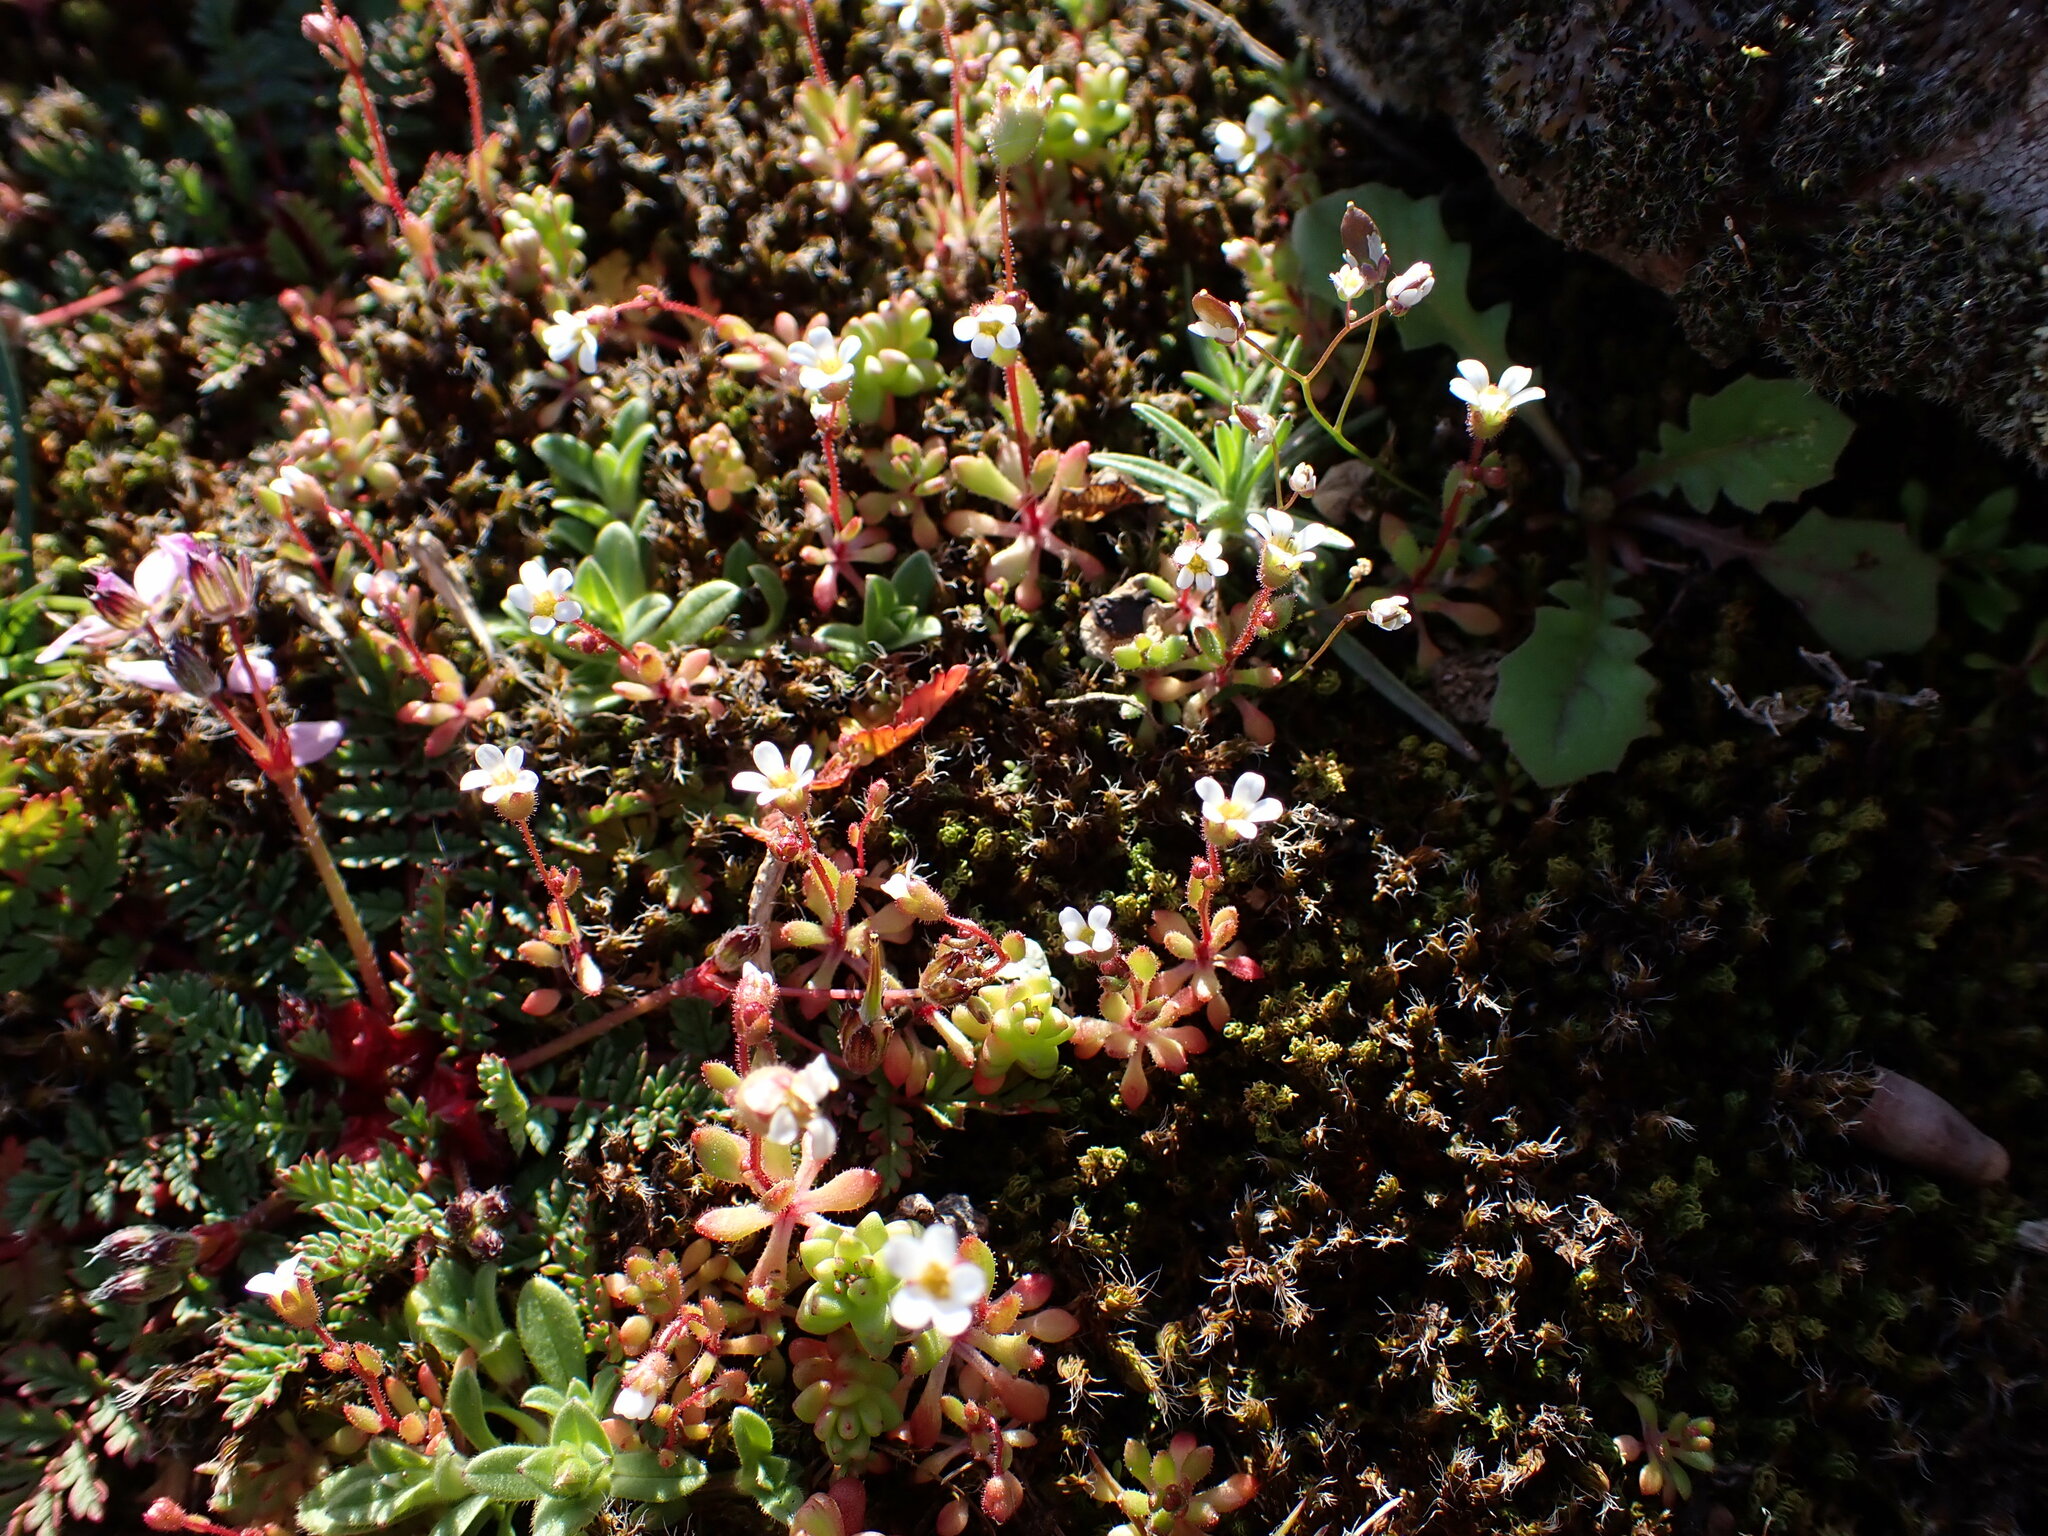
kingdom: Plantae
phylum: Tracheophyta
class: Magnoliopsida
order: Saxifragales
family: Saxifragaceae
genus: Saxifraga
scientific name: Saxifraga tridactylites
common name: Rue-leaved saxifrage
